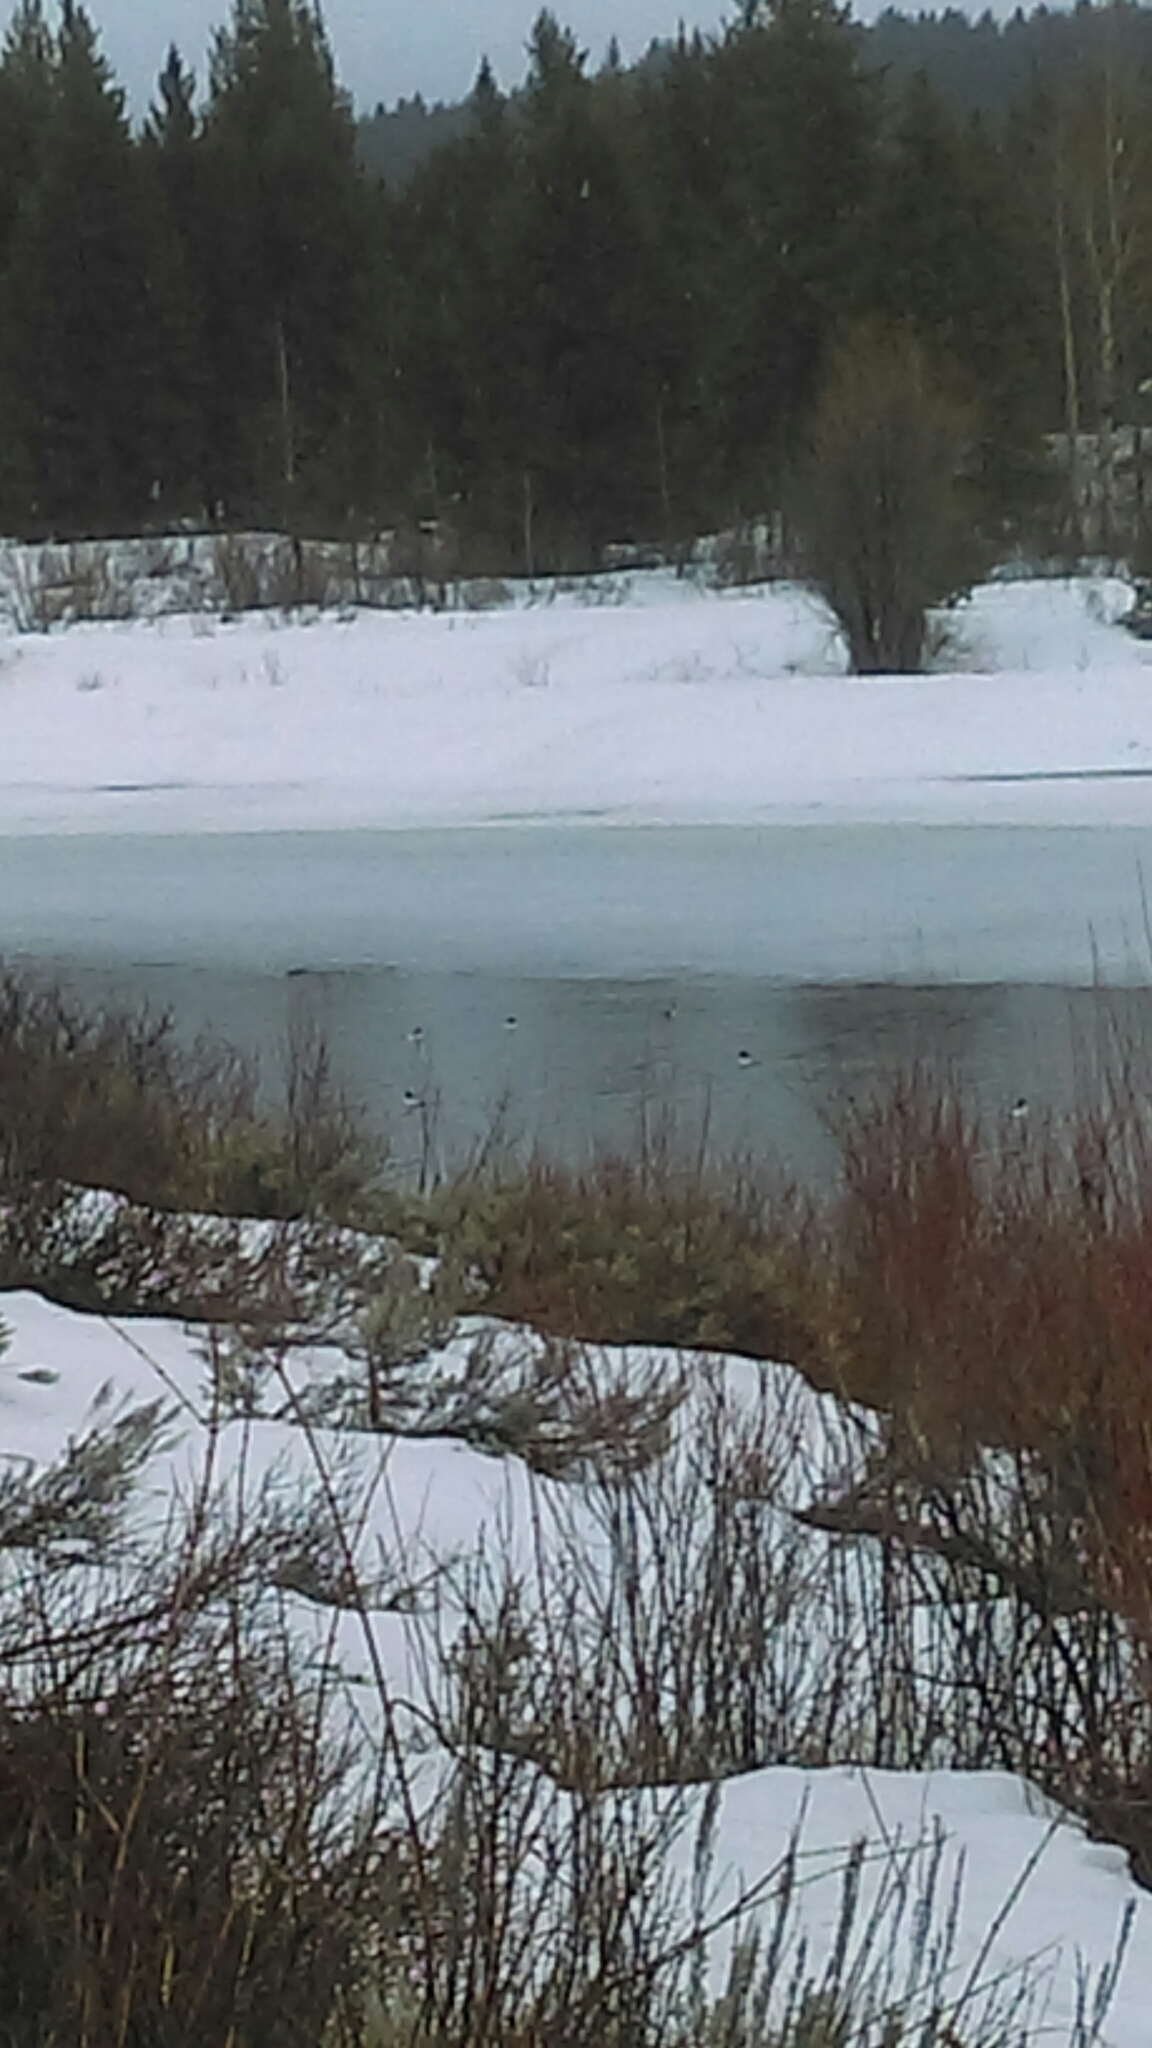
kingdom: Animalia
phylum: Chordata
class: Aves
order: Anseriformes
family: Anatidae
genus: Bucephala
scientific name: Bucephala
